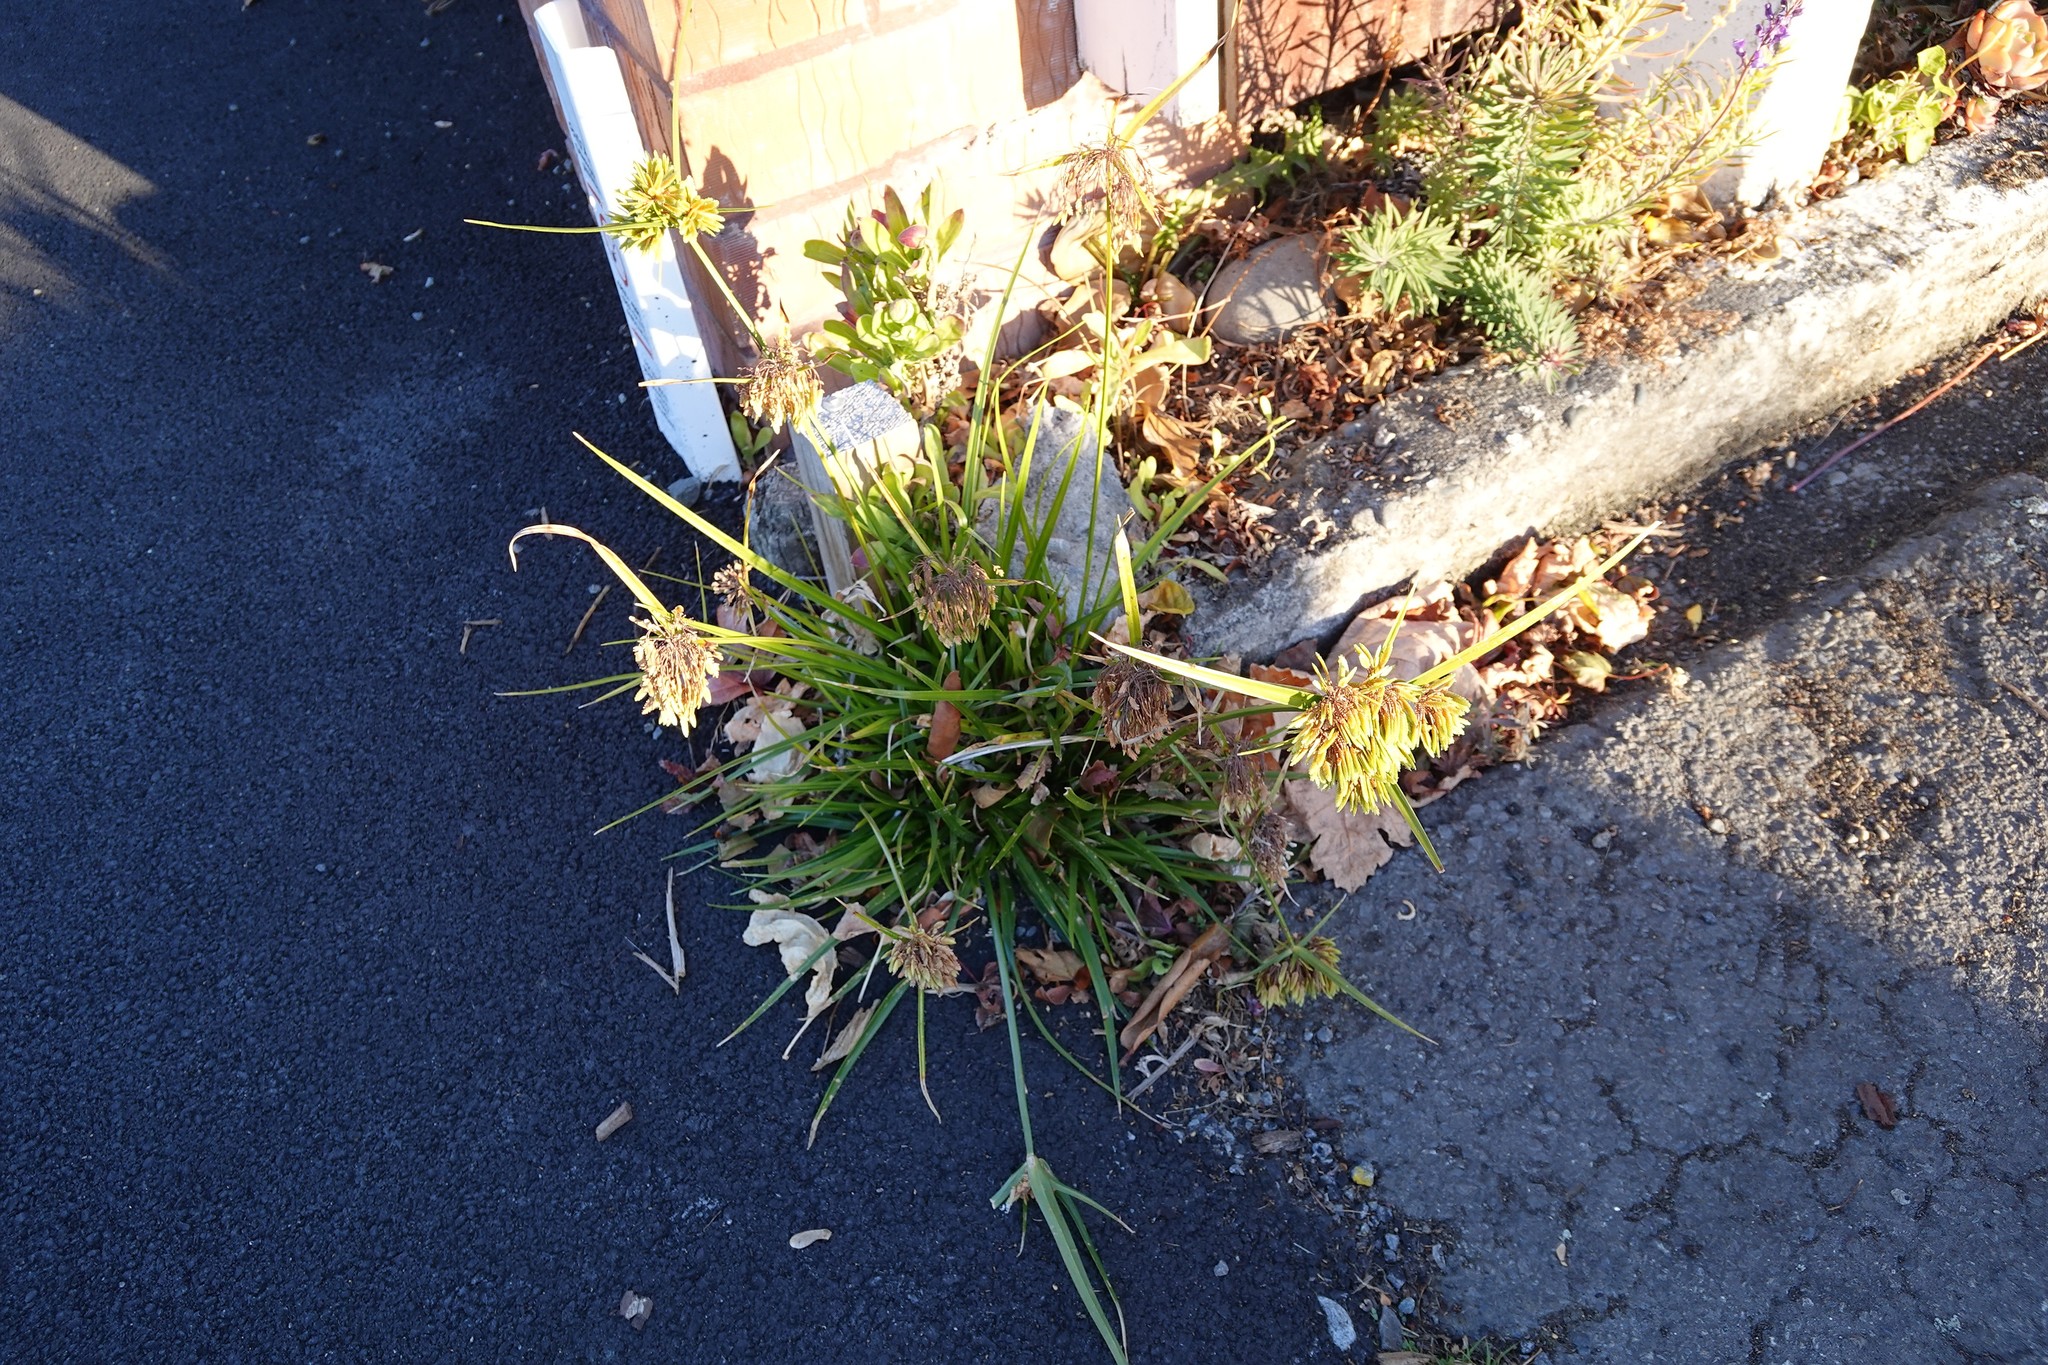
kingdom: Plantae
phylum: Tracheophyta
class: Liliopsida
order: Poales
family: Cyperaceae
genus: Cyperus
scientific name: Cyperus eragrostis
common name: Tall flatsedge
